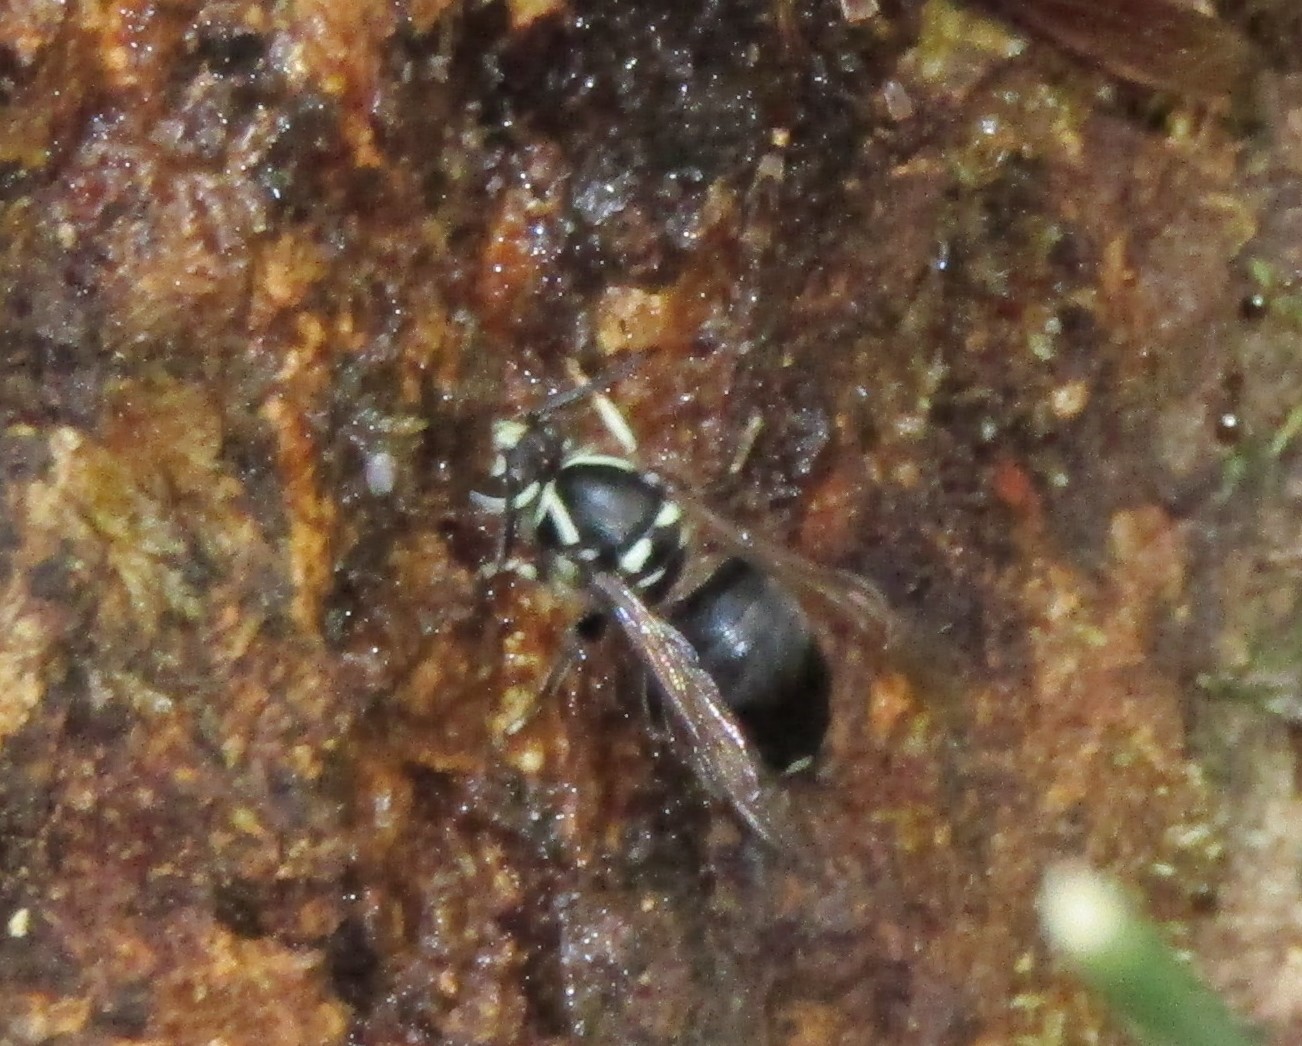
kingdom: Animalia
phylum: Arthropoda
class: Insecta
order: Hymenoptera
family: Vespidae
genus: Dolichovespula
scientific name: Dolichovespula maculata
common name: Bald-faced hornet
